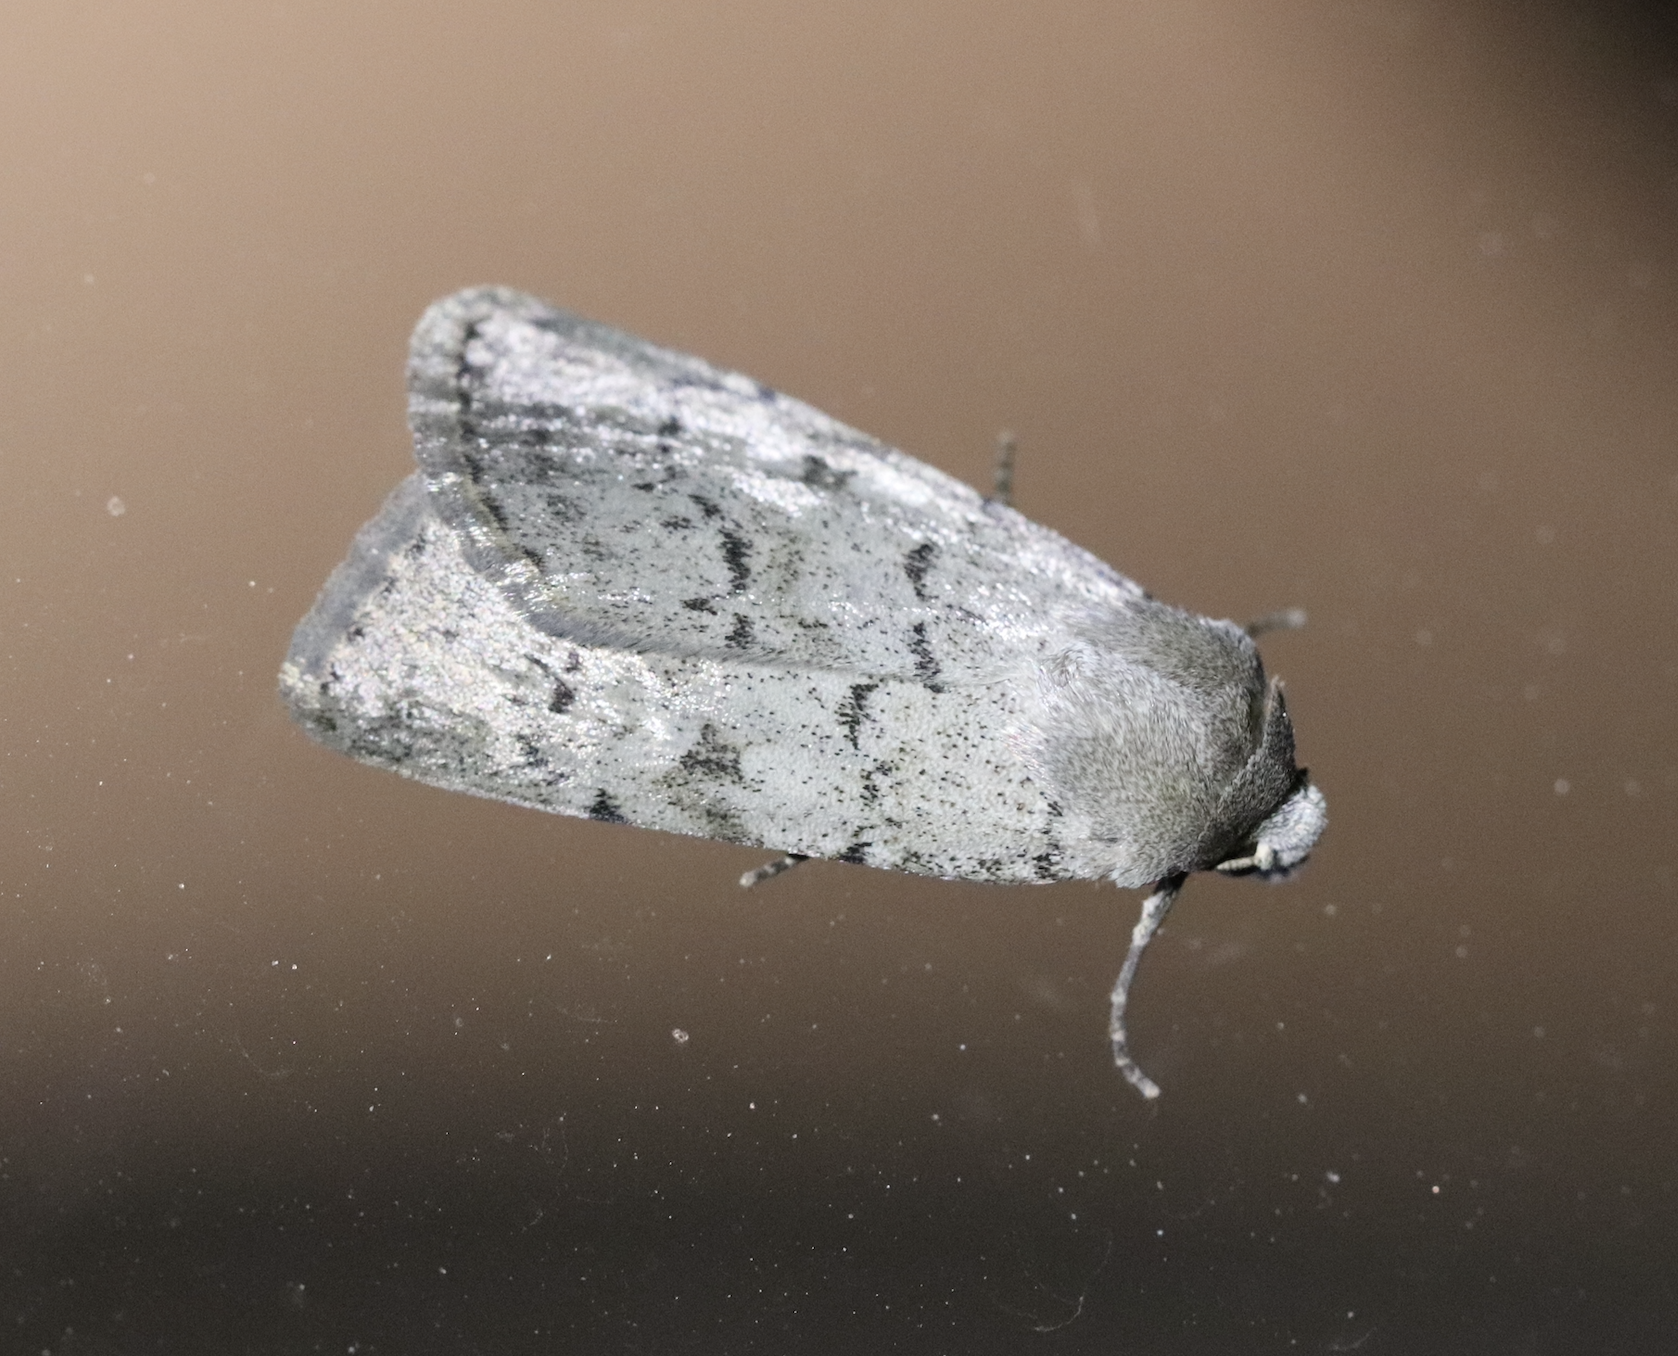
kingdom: Animalia
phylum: Arthropoda
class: Insecta
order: Lepidoptera
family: Noctuidae
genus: Epipsilia
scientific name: Epipsilia grisescens
